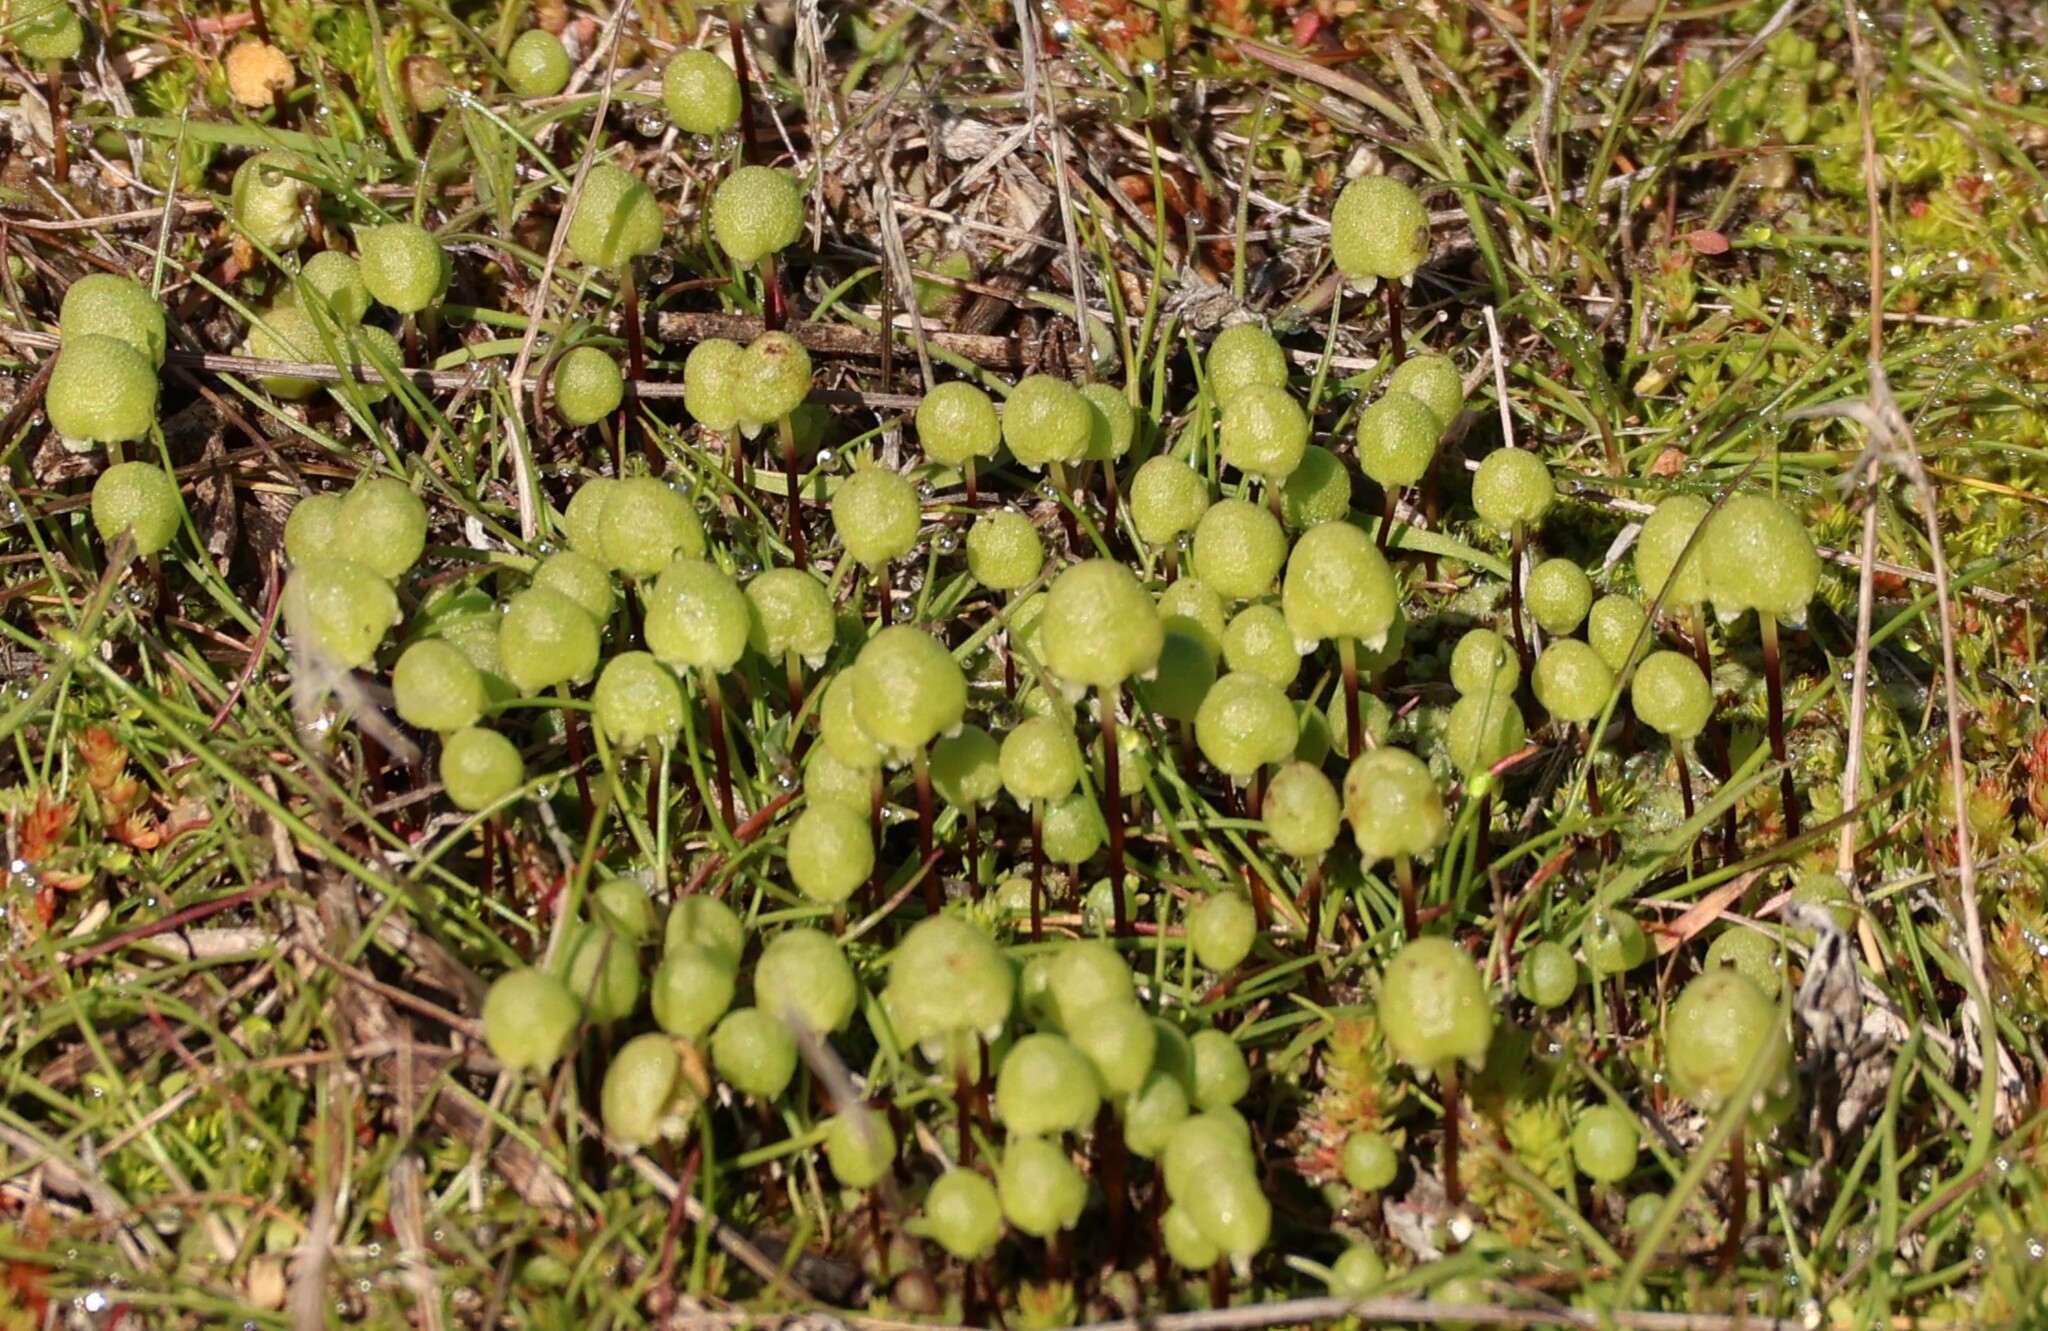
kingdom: Plantae
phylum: Marchantiophyta
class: Marchantiopsida
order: Marchantiales
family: Aytoniaceae
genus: Asterella
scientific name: Asterella palmeri
